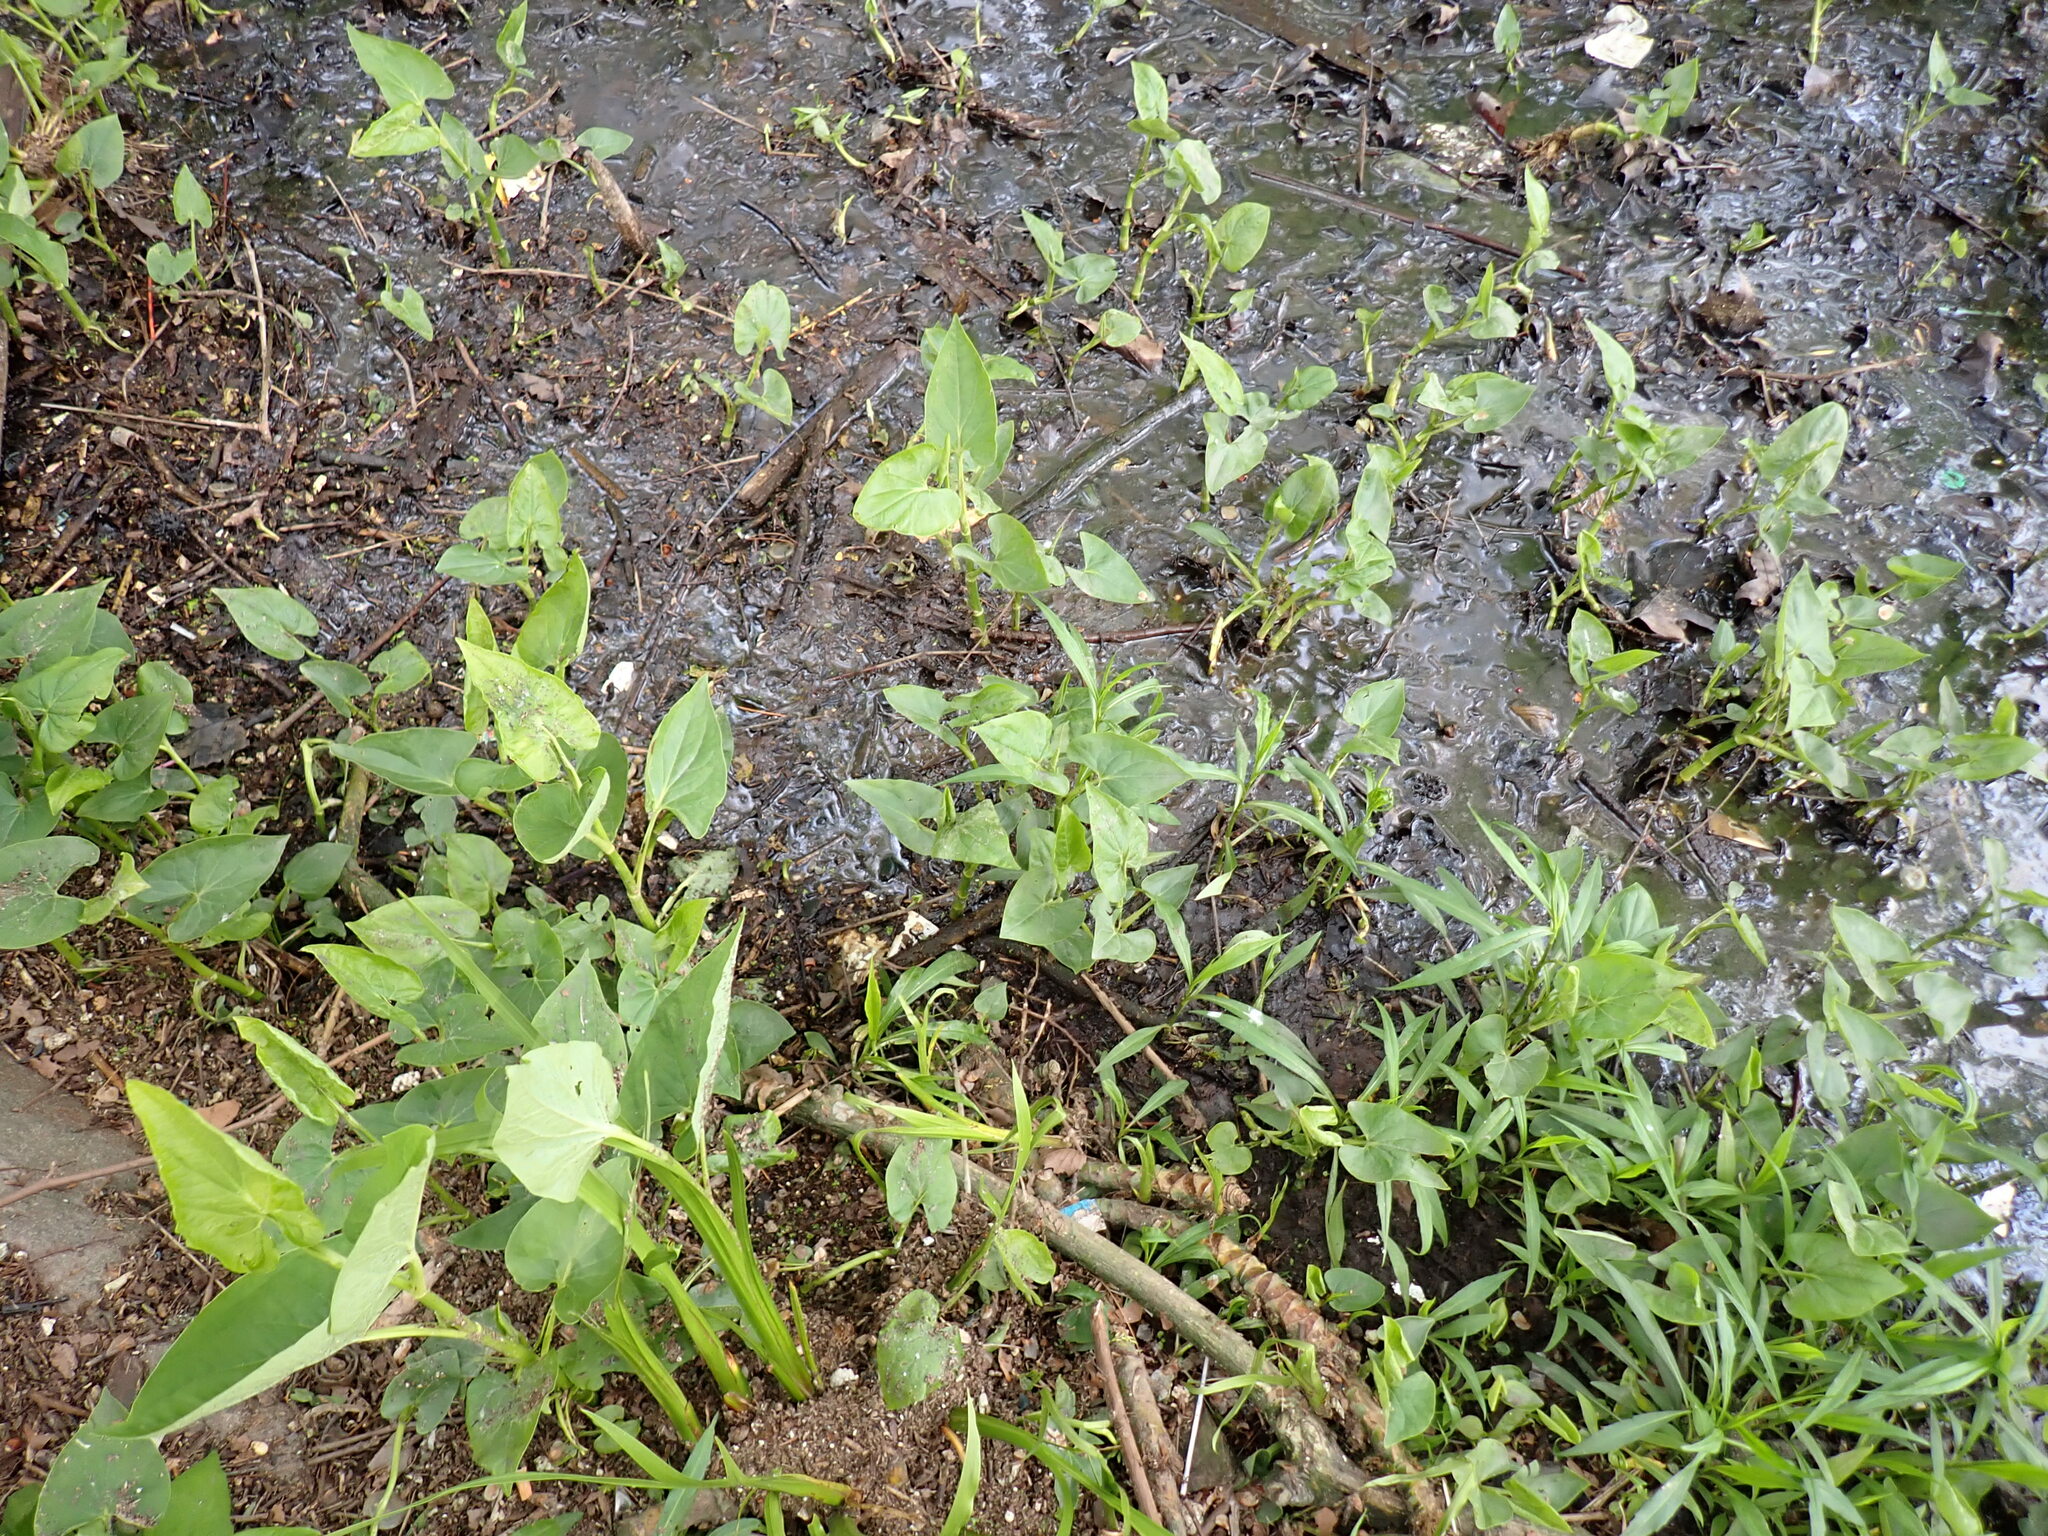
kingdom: Plantae
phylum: Tracheophyta
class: Magnoliopsida
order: Piperales
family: Saururaceae
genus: Saururus
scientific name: Saururus cernuus
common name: Lizard's-tail
